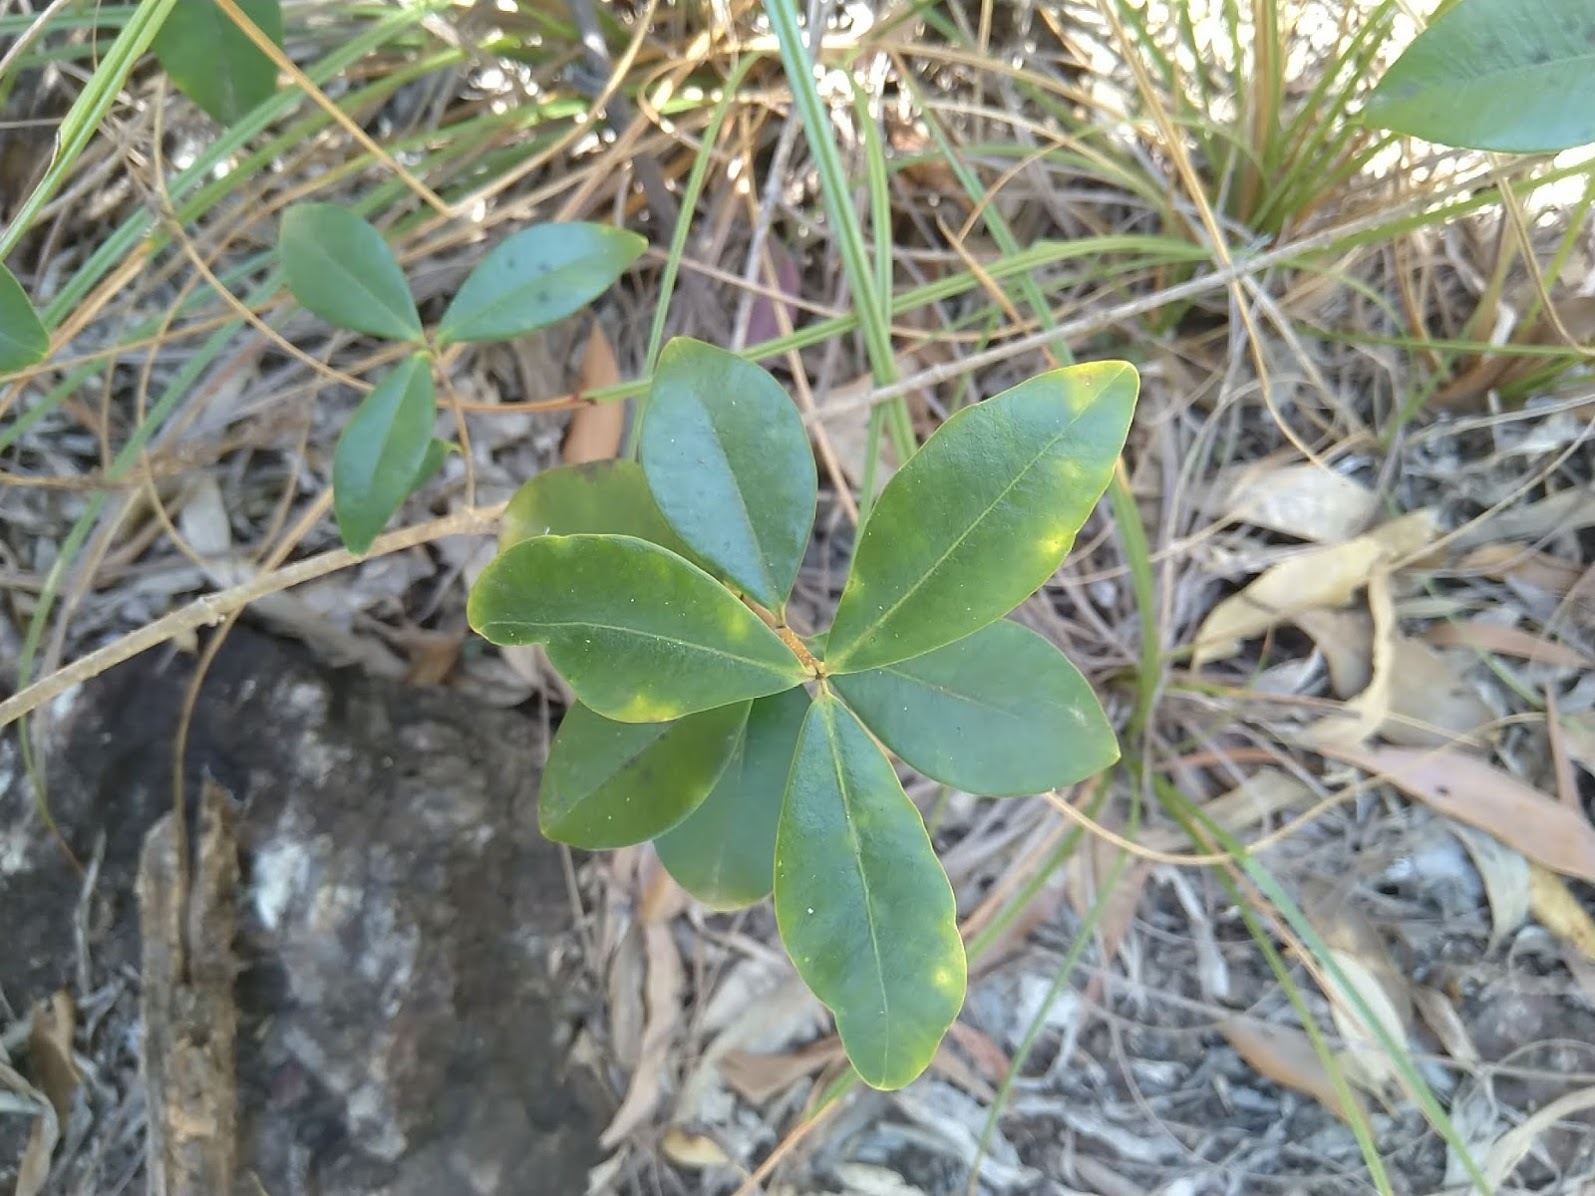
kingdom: Plantae
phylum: Tracheophyta
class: Magnoliopsida
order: Gentianales
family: Apocynaceae
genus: Alyxia
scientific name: Alyxia spicata
